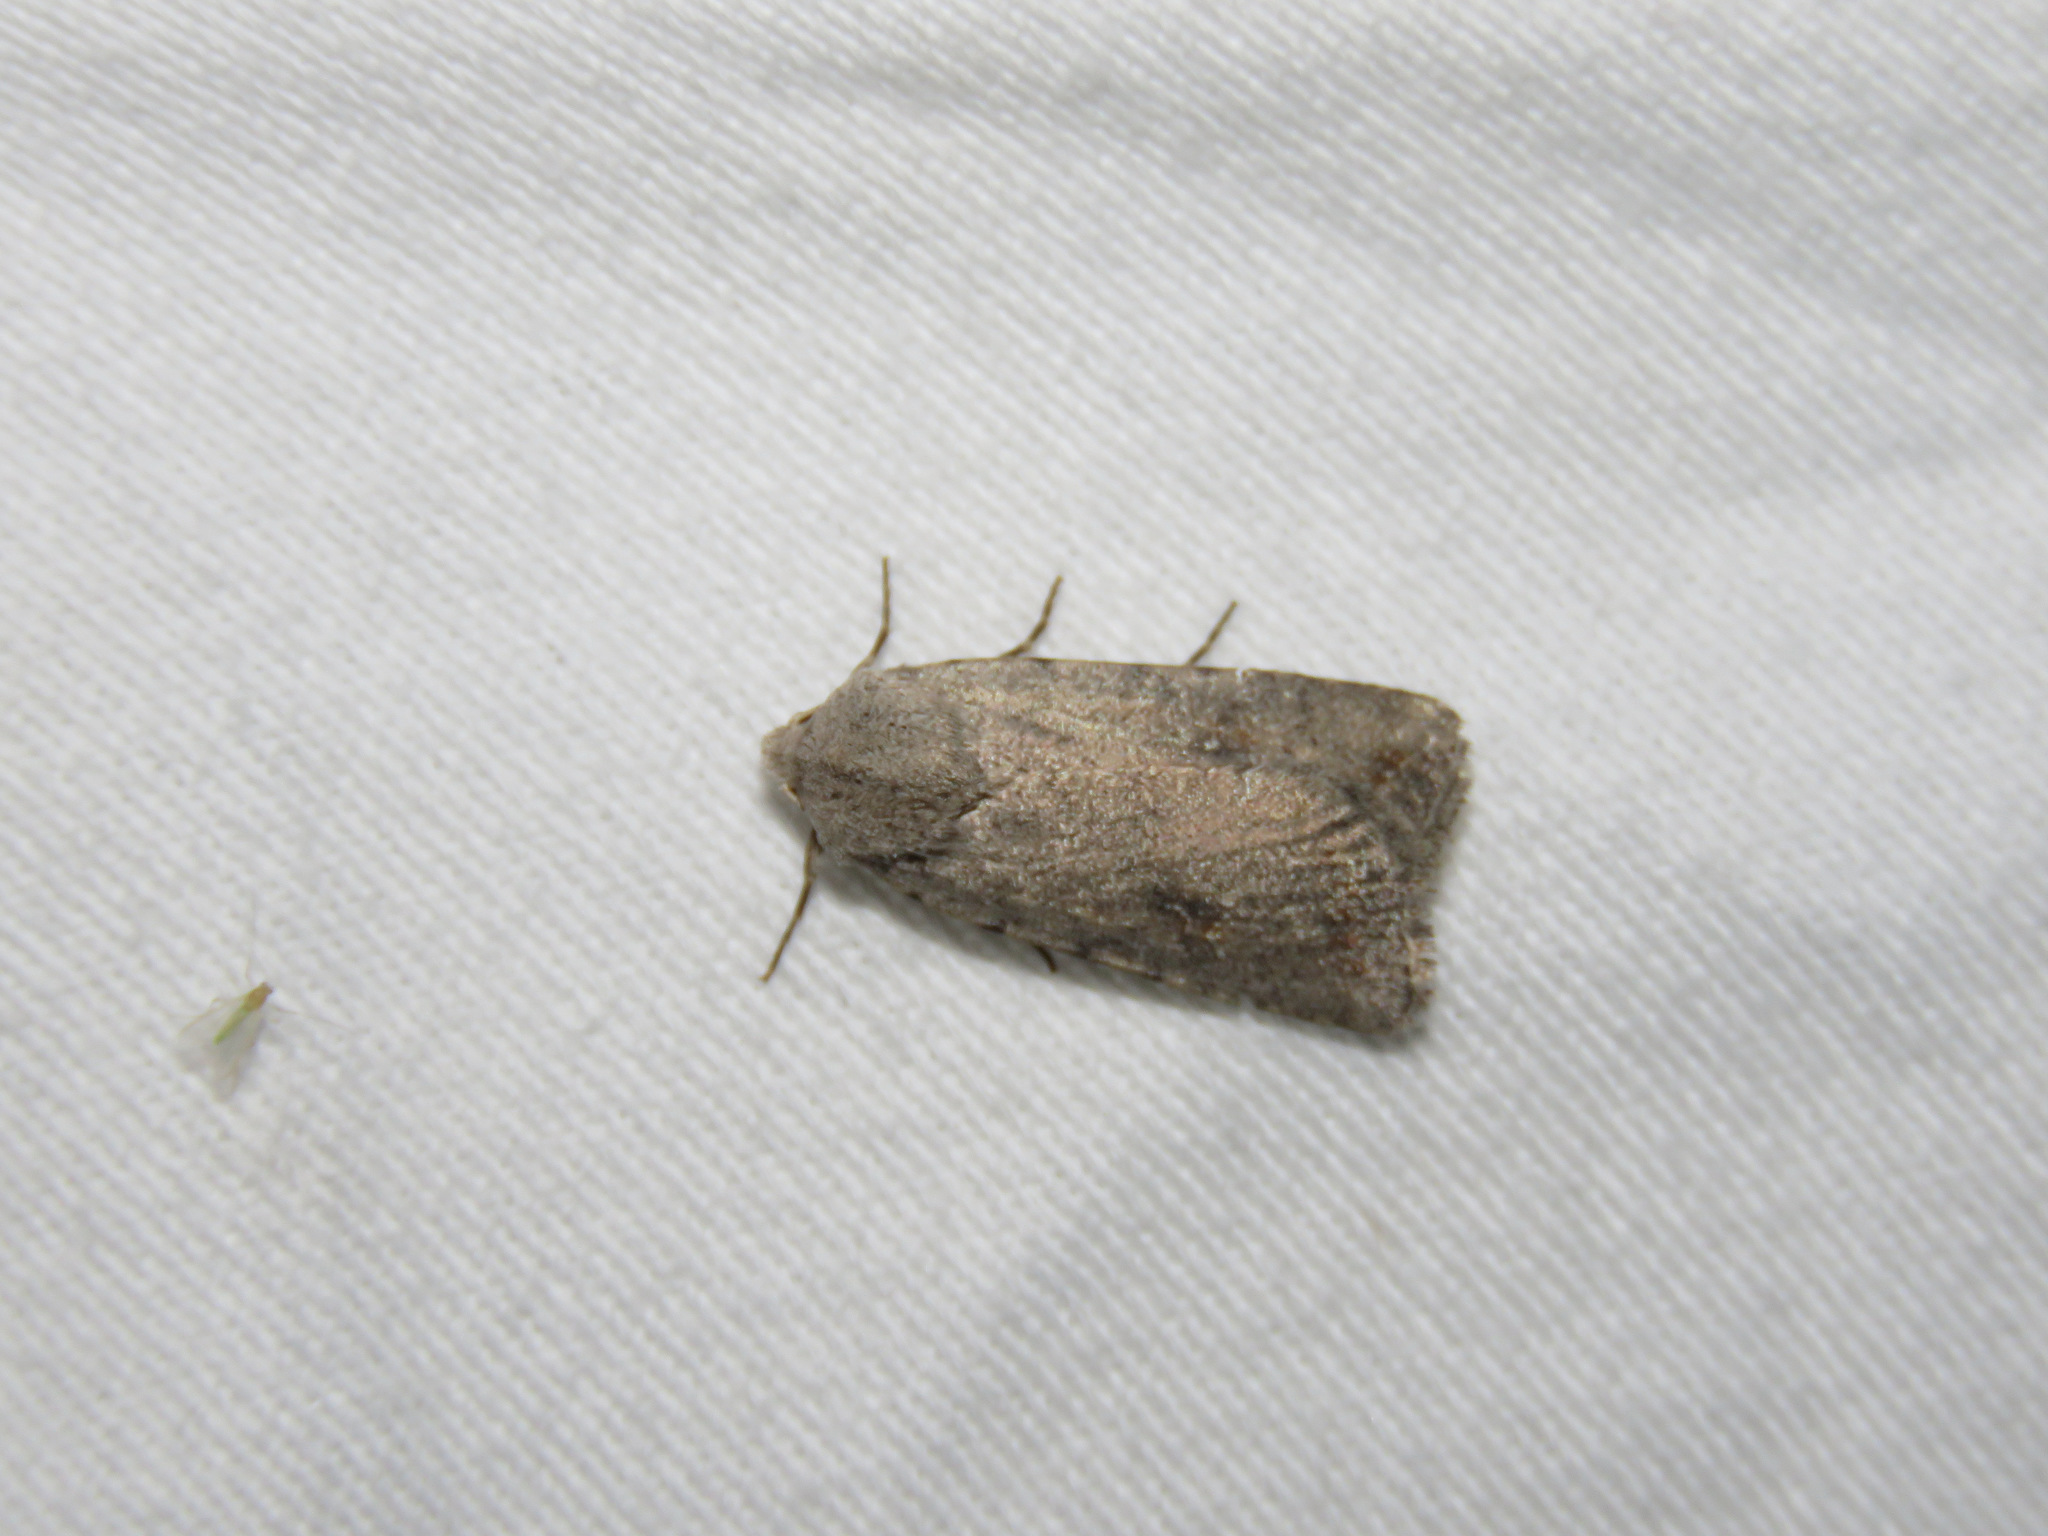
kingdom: Animalia
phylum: Arthropoda
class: Insecta
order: Lepidoptera
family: Noctuidae
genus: Caradrina
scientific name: Caradrina montana
